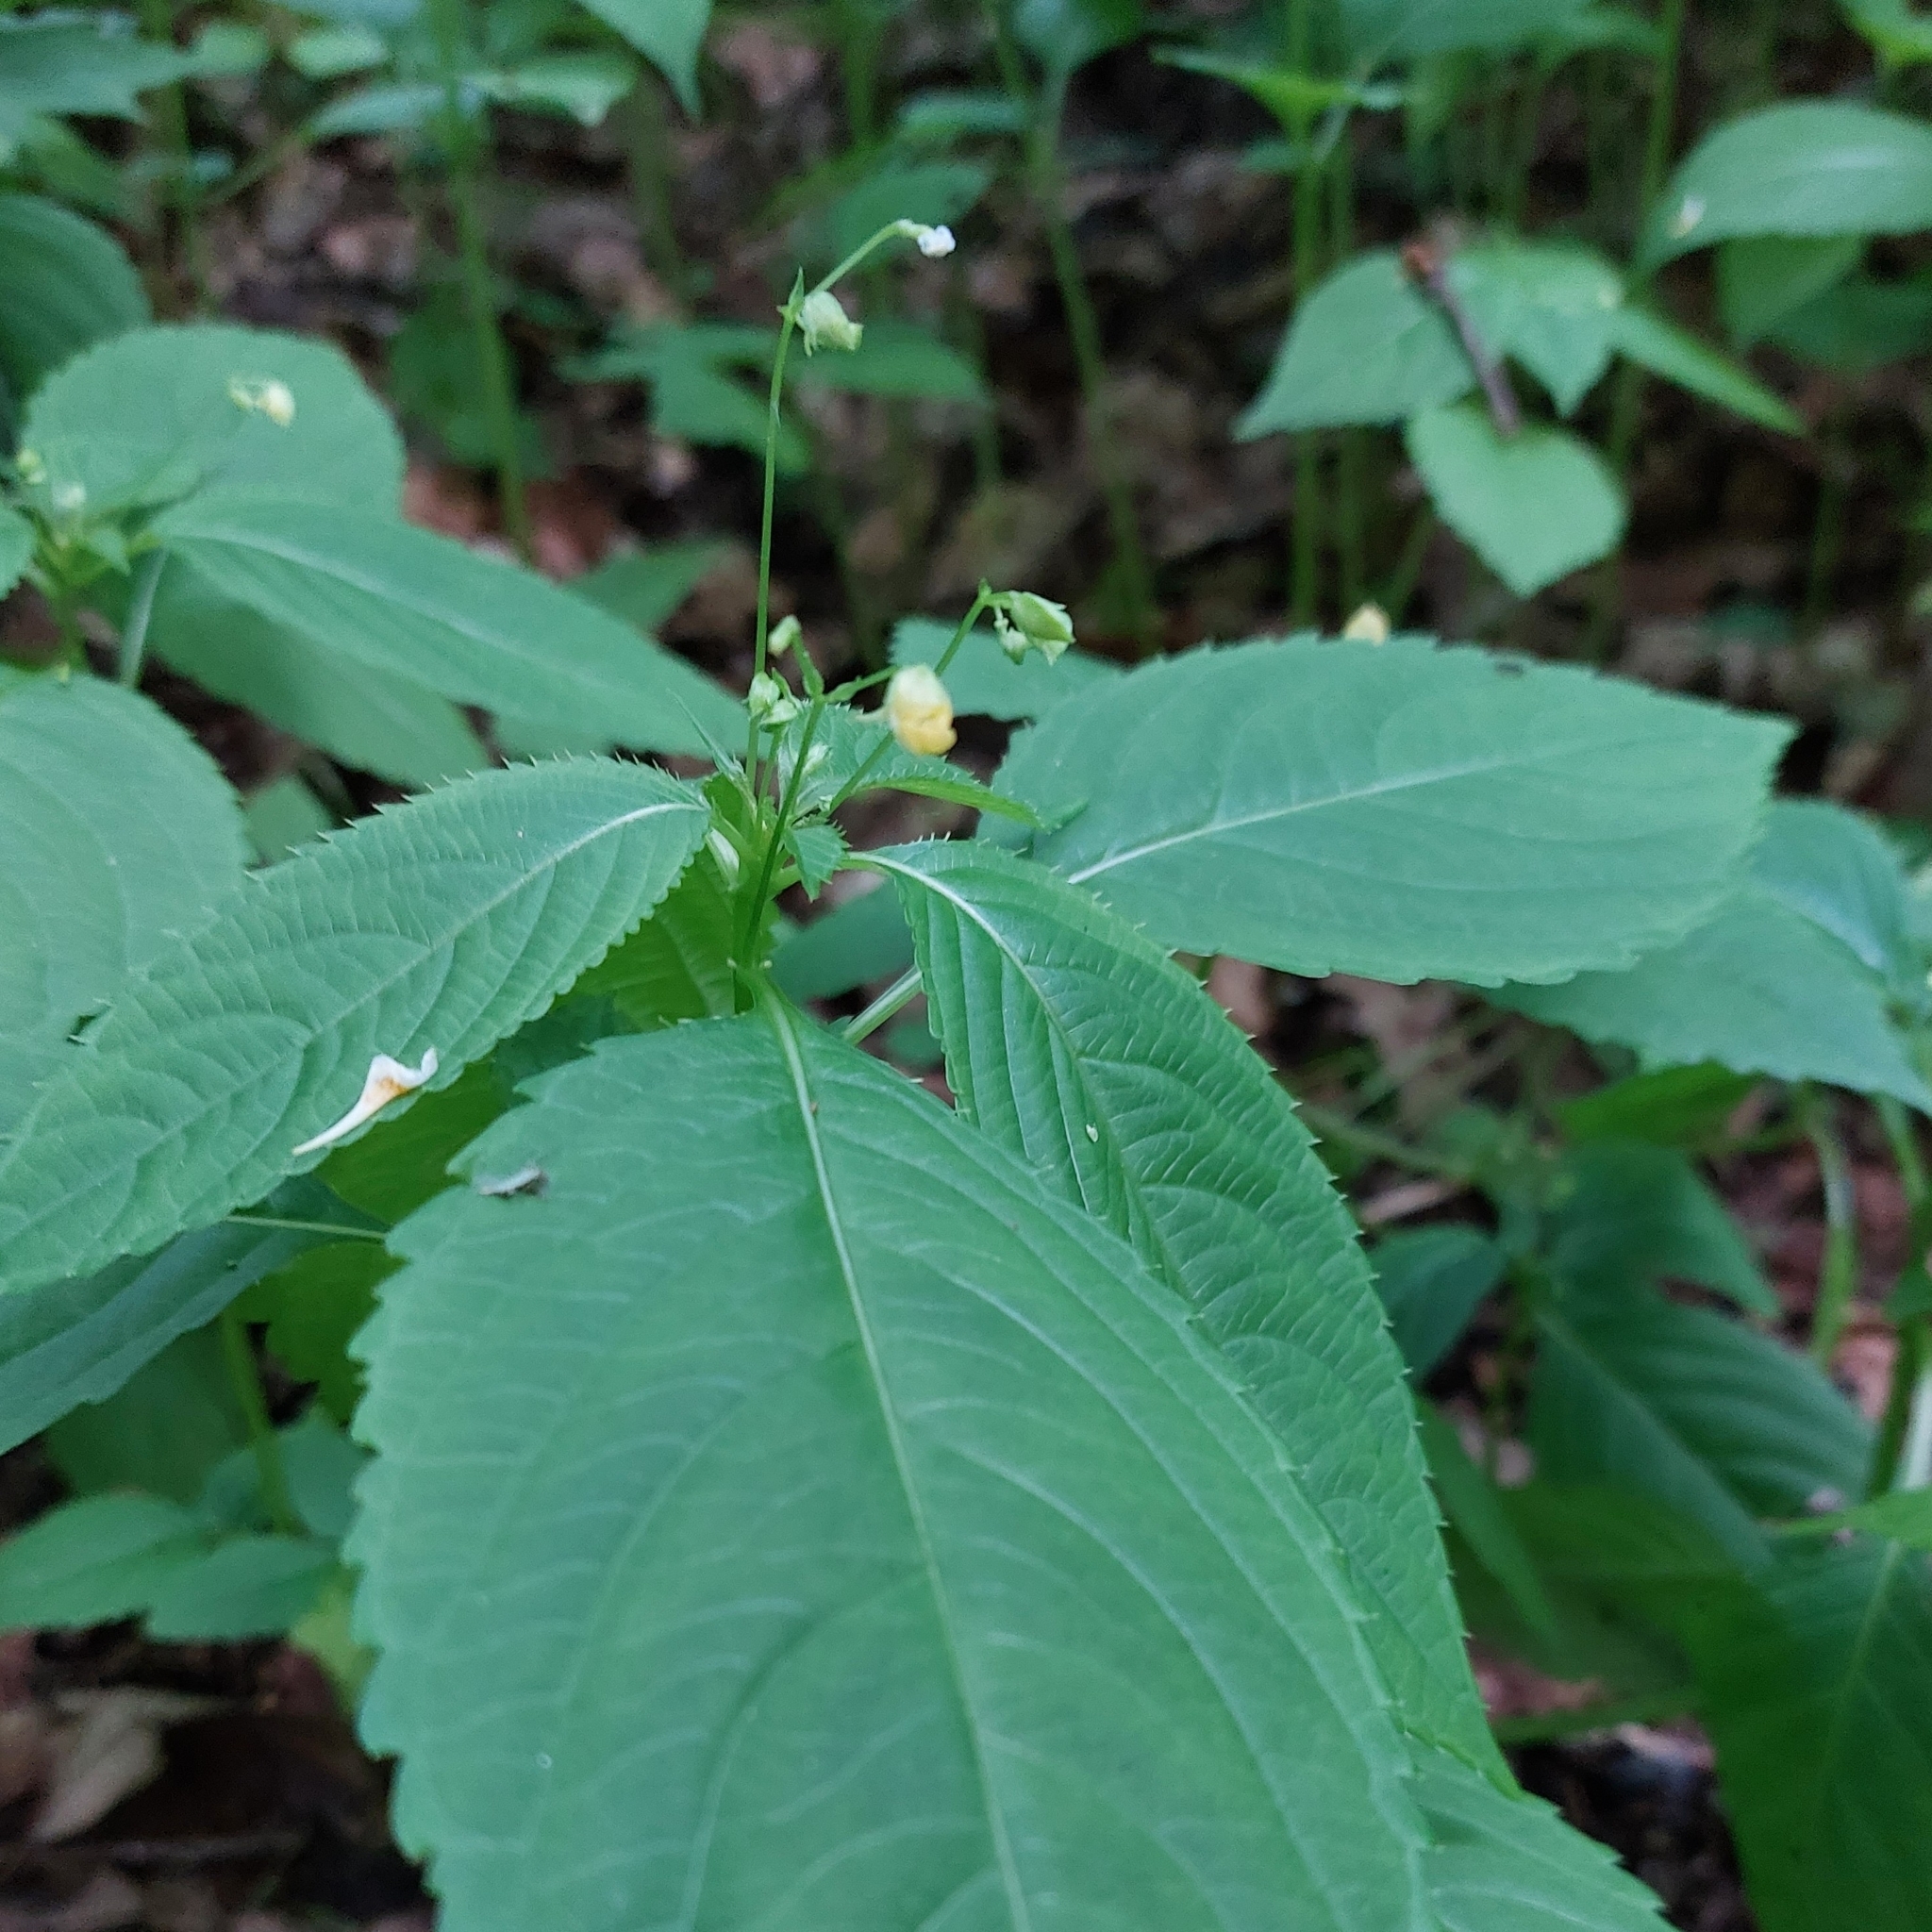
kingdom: Plantae
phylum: Tracheophyta
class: Magnoliopsida
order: Ericales
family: Balsaminaceae
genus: Impatiens
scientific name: Impatiens parviflora
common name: Small balsam
